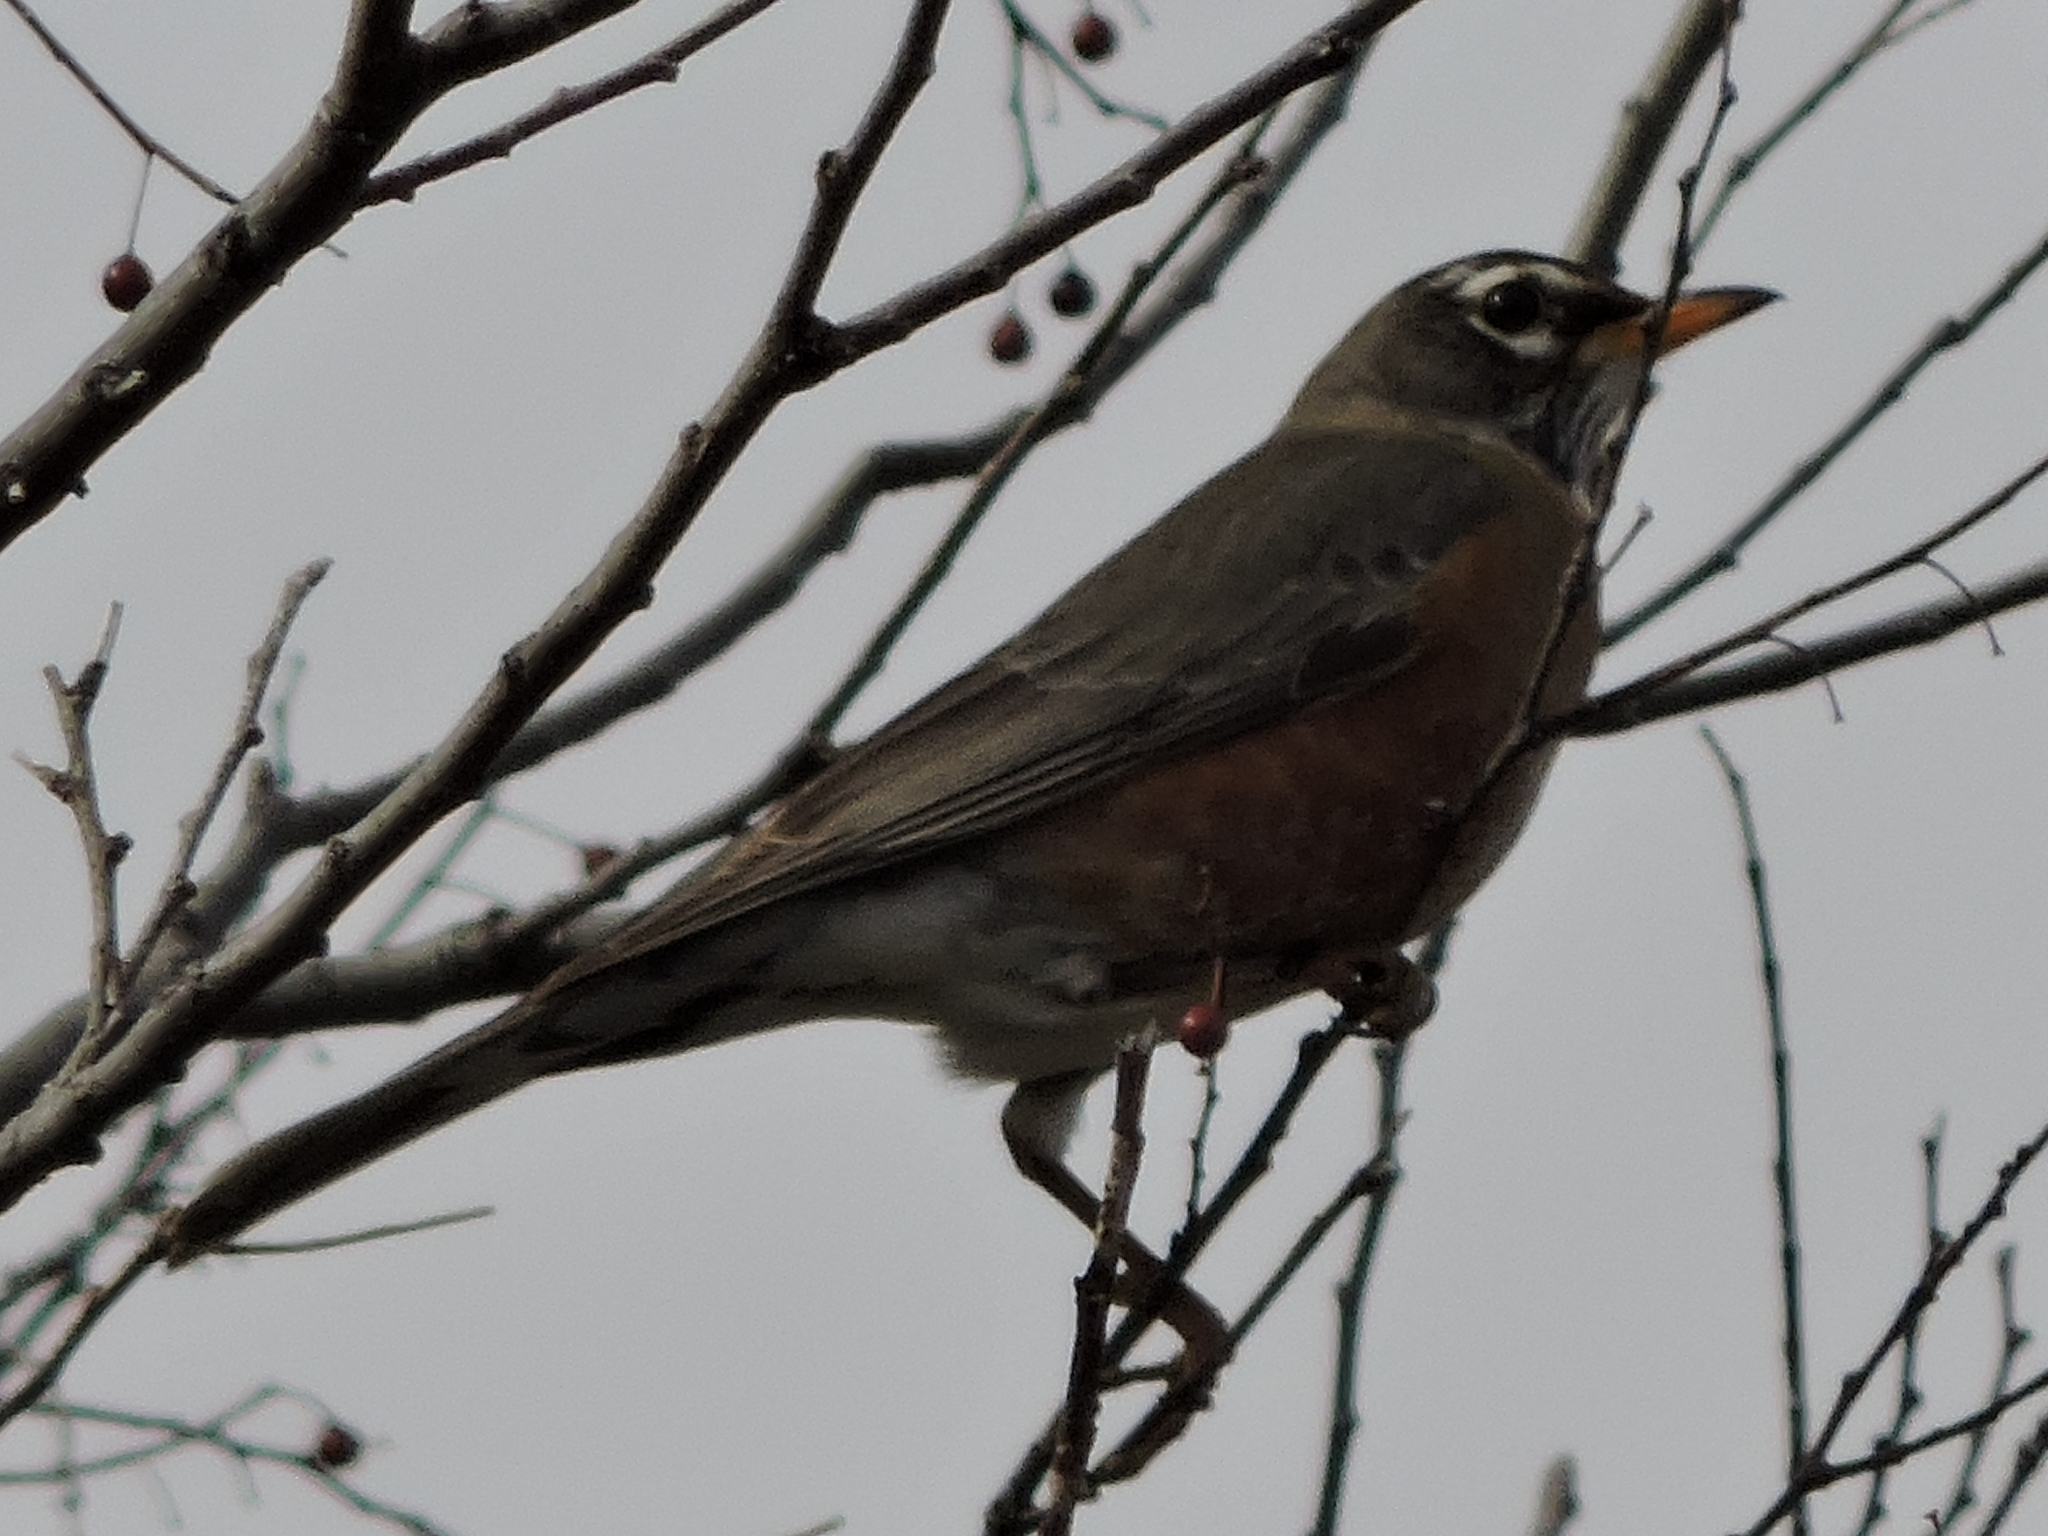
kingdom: Animalia
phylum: Chordata
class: Aves
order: Passeriformes
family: Turdidae
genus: Turdus
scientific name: Turdus migratorius
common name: American robin
